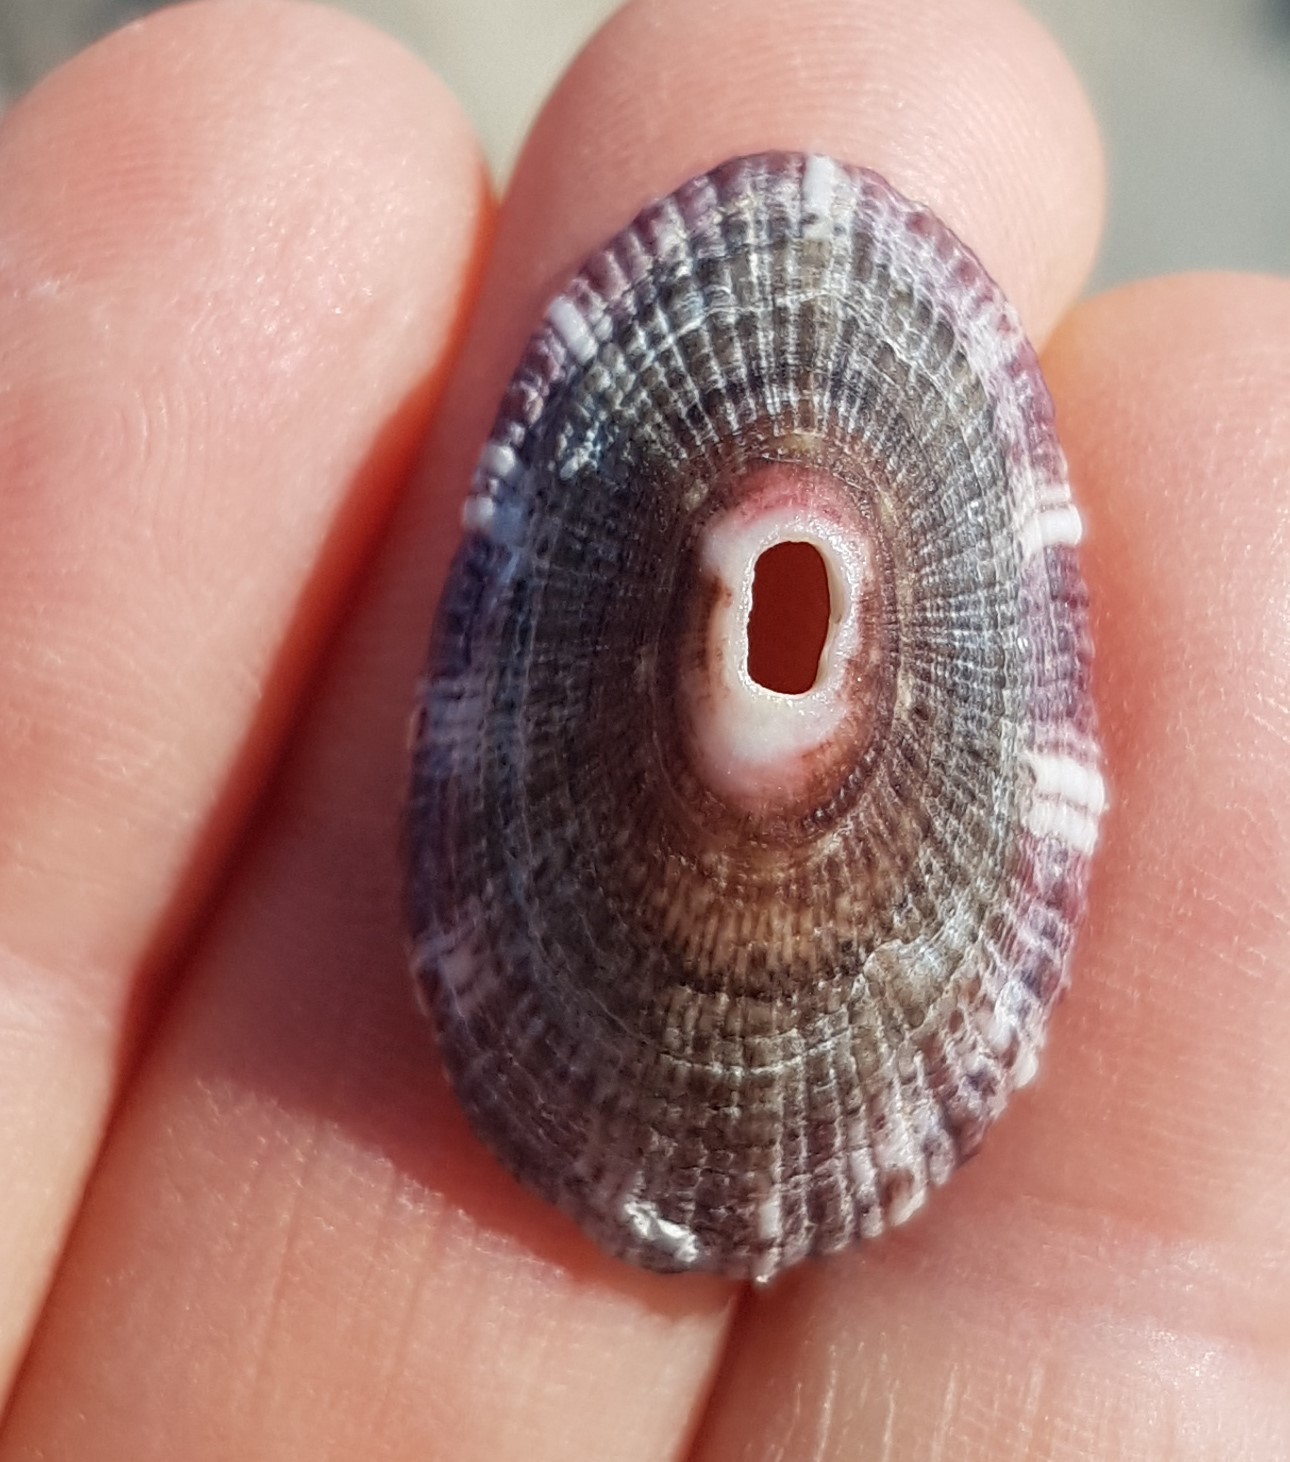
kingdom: Animalia
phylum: Mollusca
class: Gastropoda
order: Lepetellida
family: Fissurellidae
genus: Fissurella
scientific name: Fissurella nubecula
